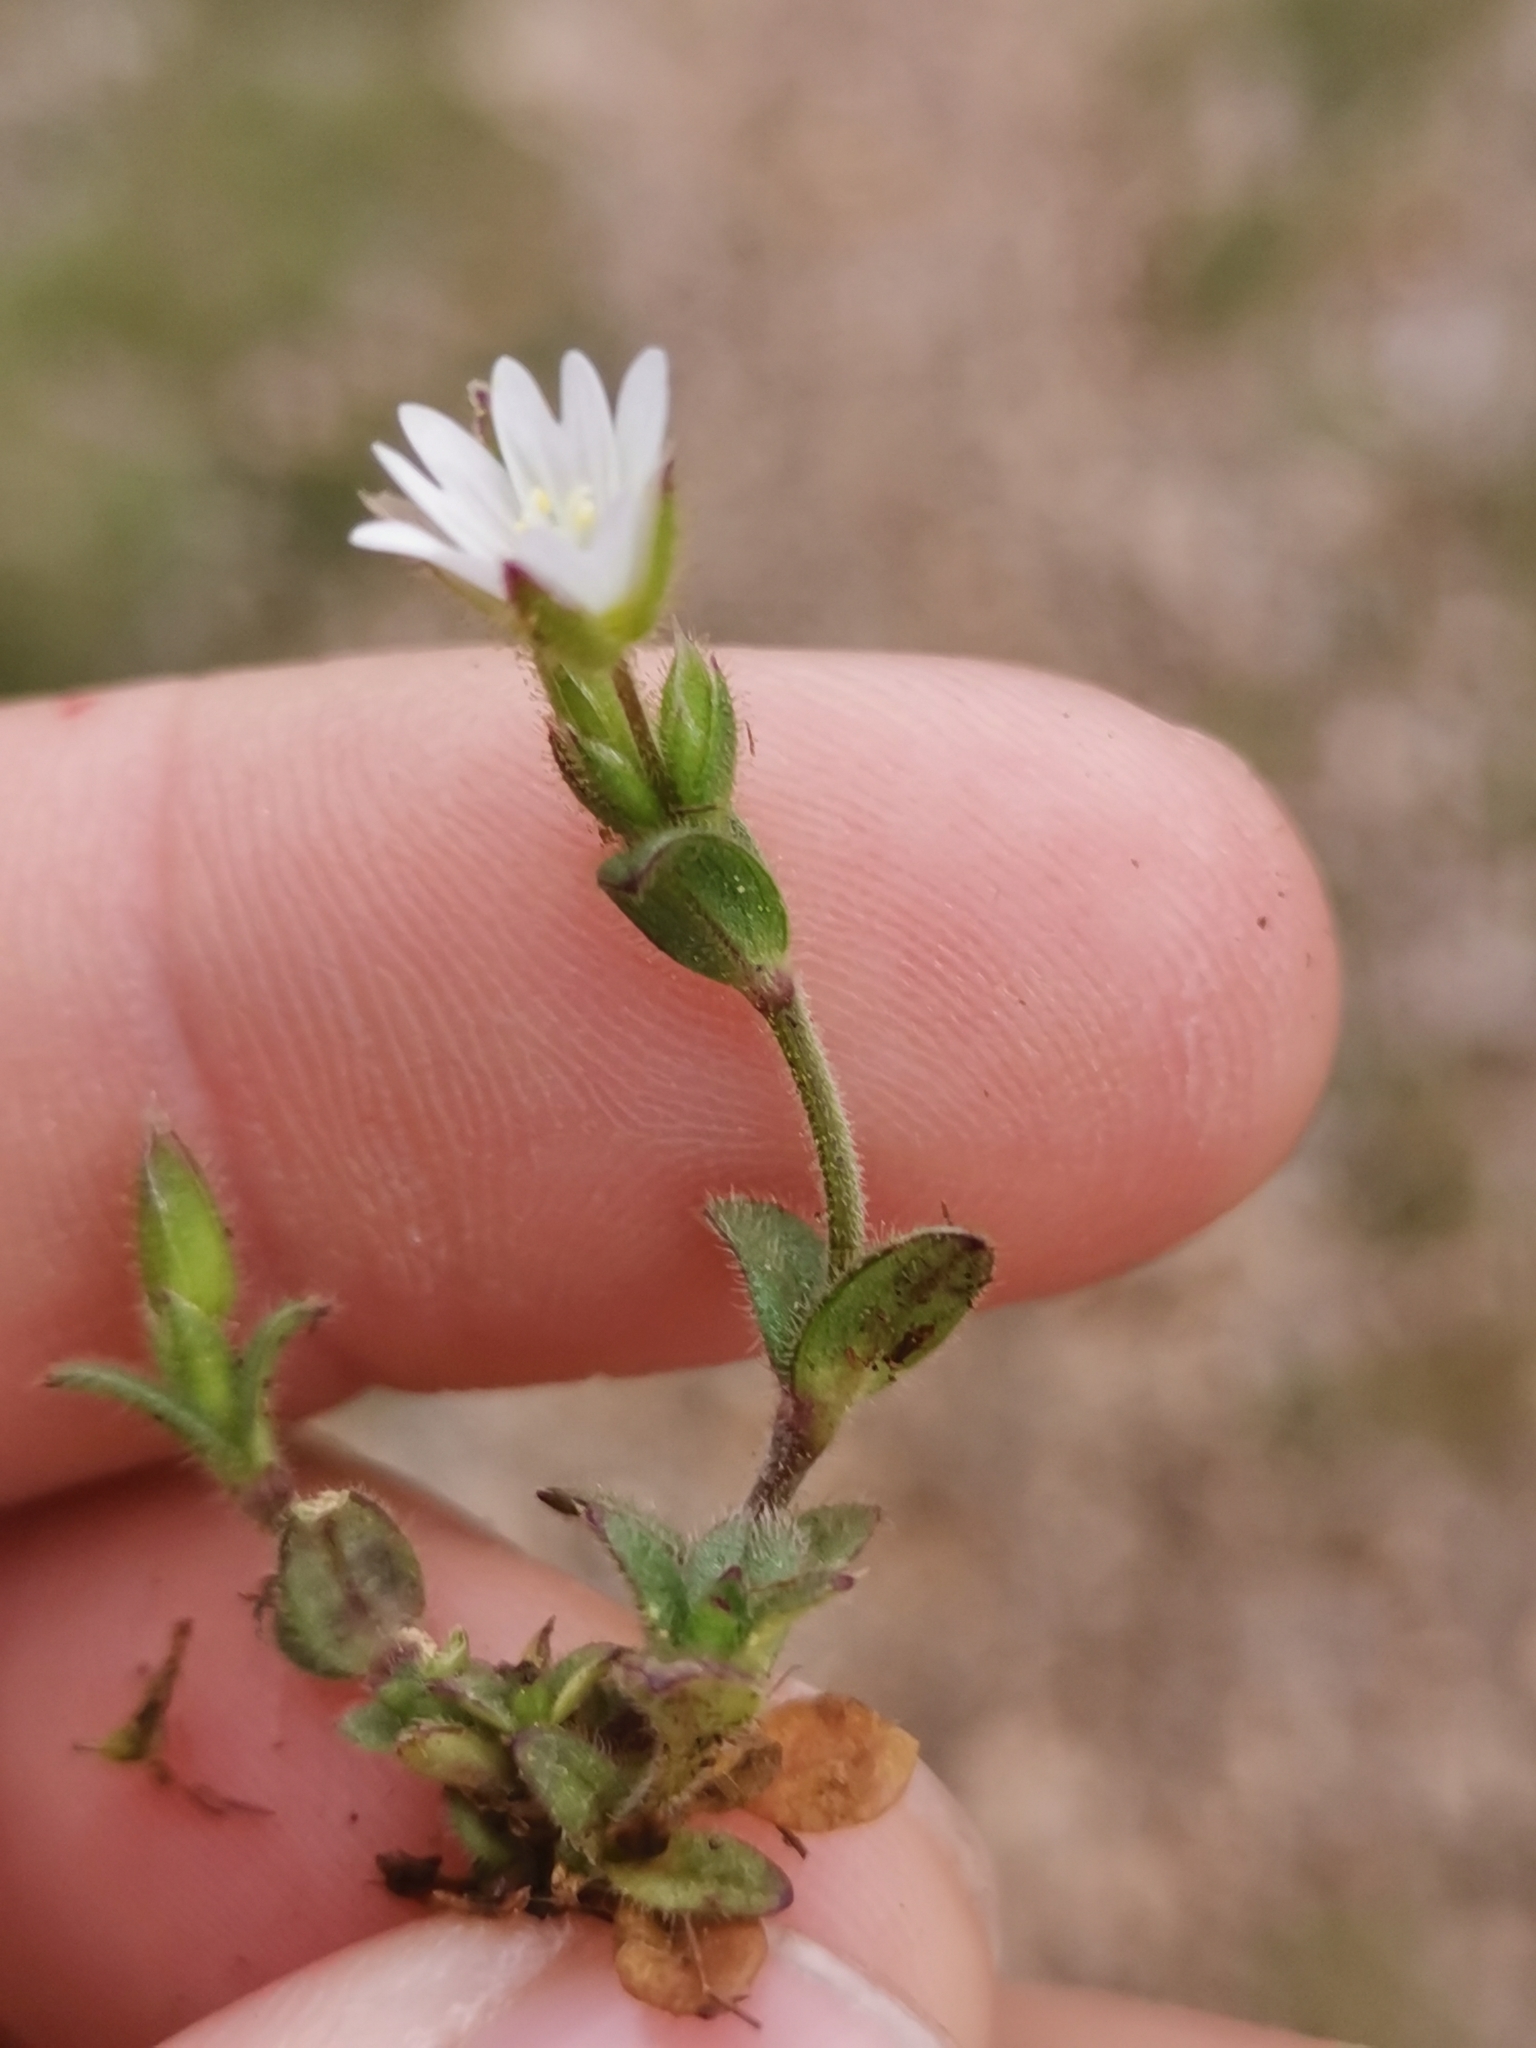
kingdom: Plantae
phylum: Tracheophyta
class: Magnoliopsida
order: Caryophyllales
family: Caryophyllaceae
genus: Cerastium
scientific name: Cerastium pumilum
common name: Dwarf mouse-ear
